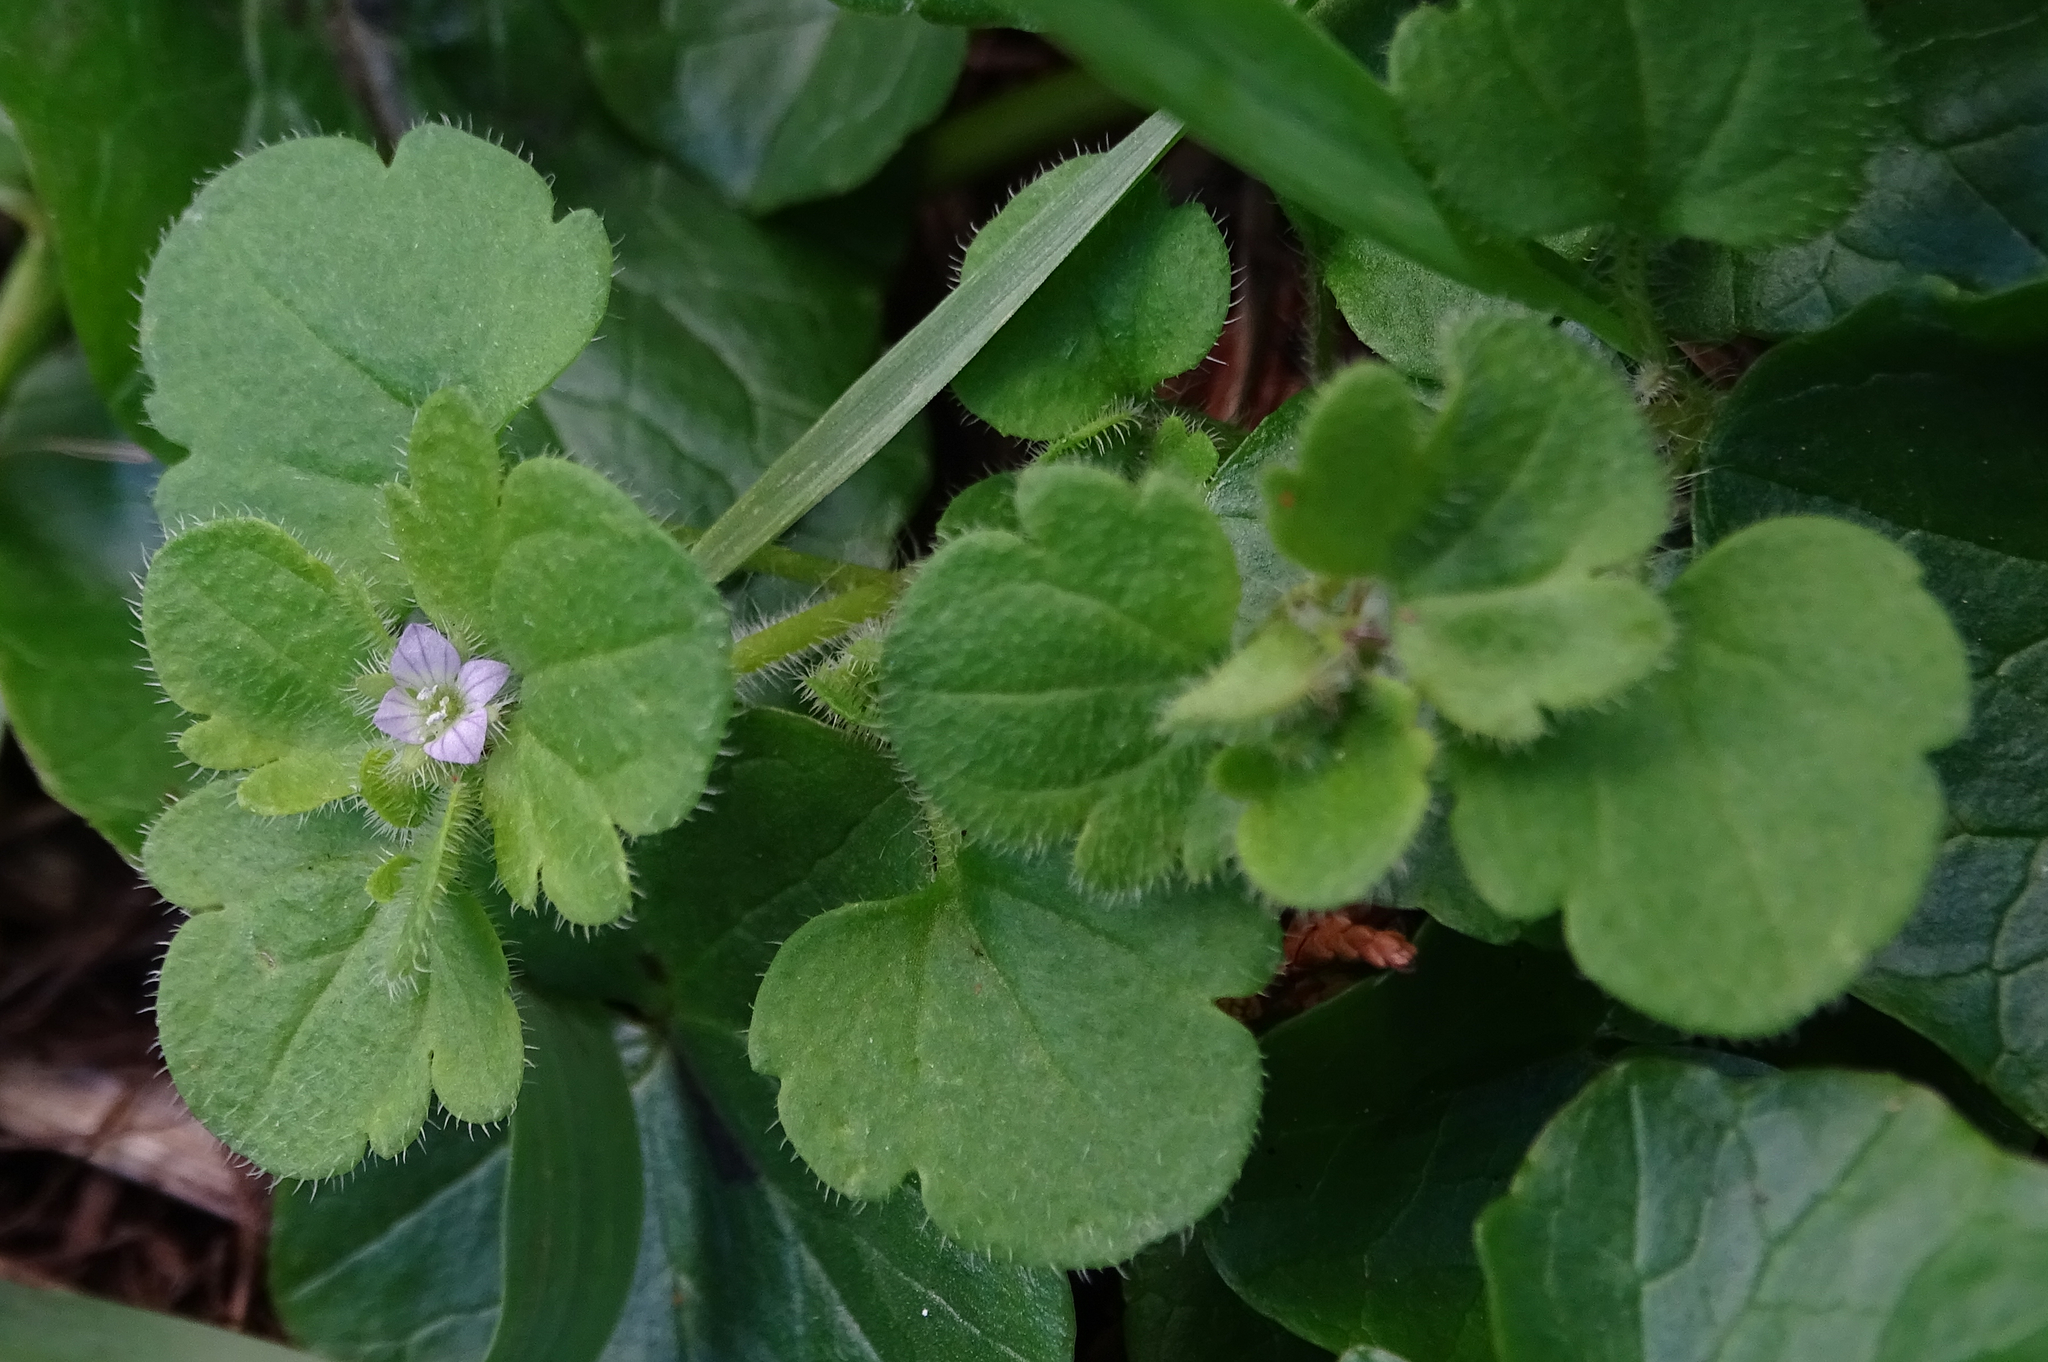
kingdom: Plantae
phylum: Tracheophyta
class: Magnoliopsida
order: Lamiales
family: Plantaginaceae
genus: Veronica
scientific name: Veronica sublobata
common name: False ivy-leaved speedwell
